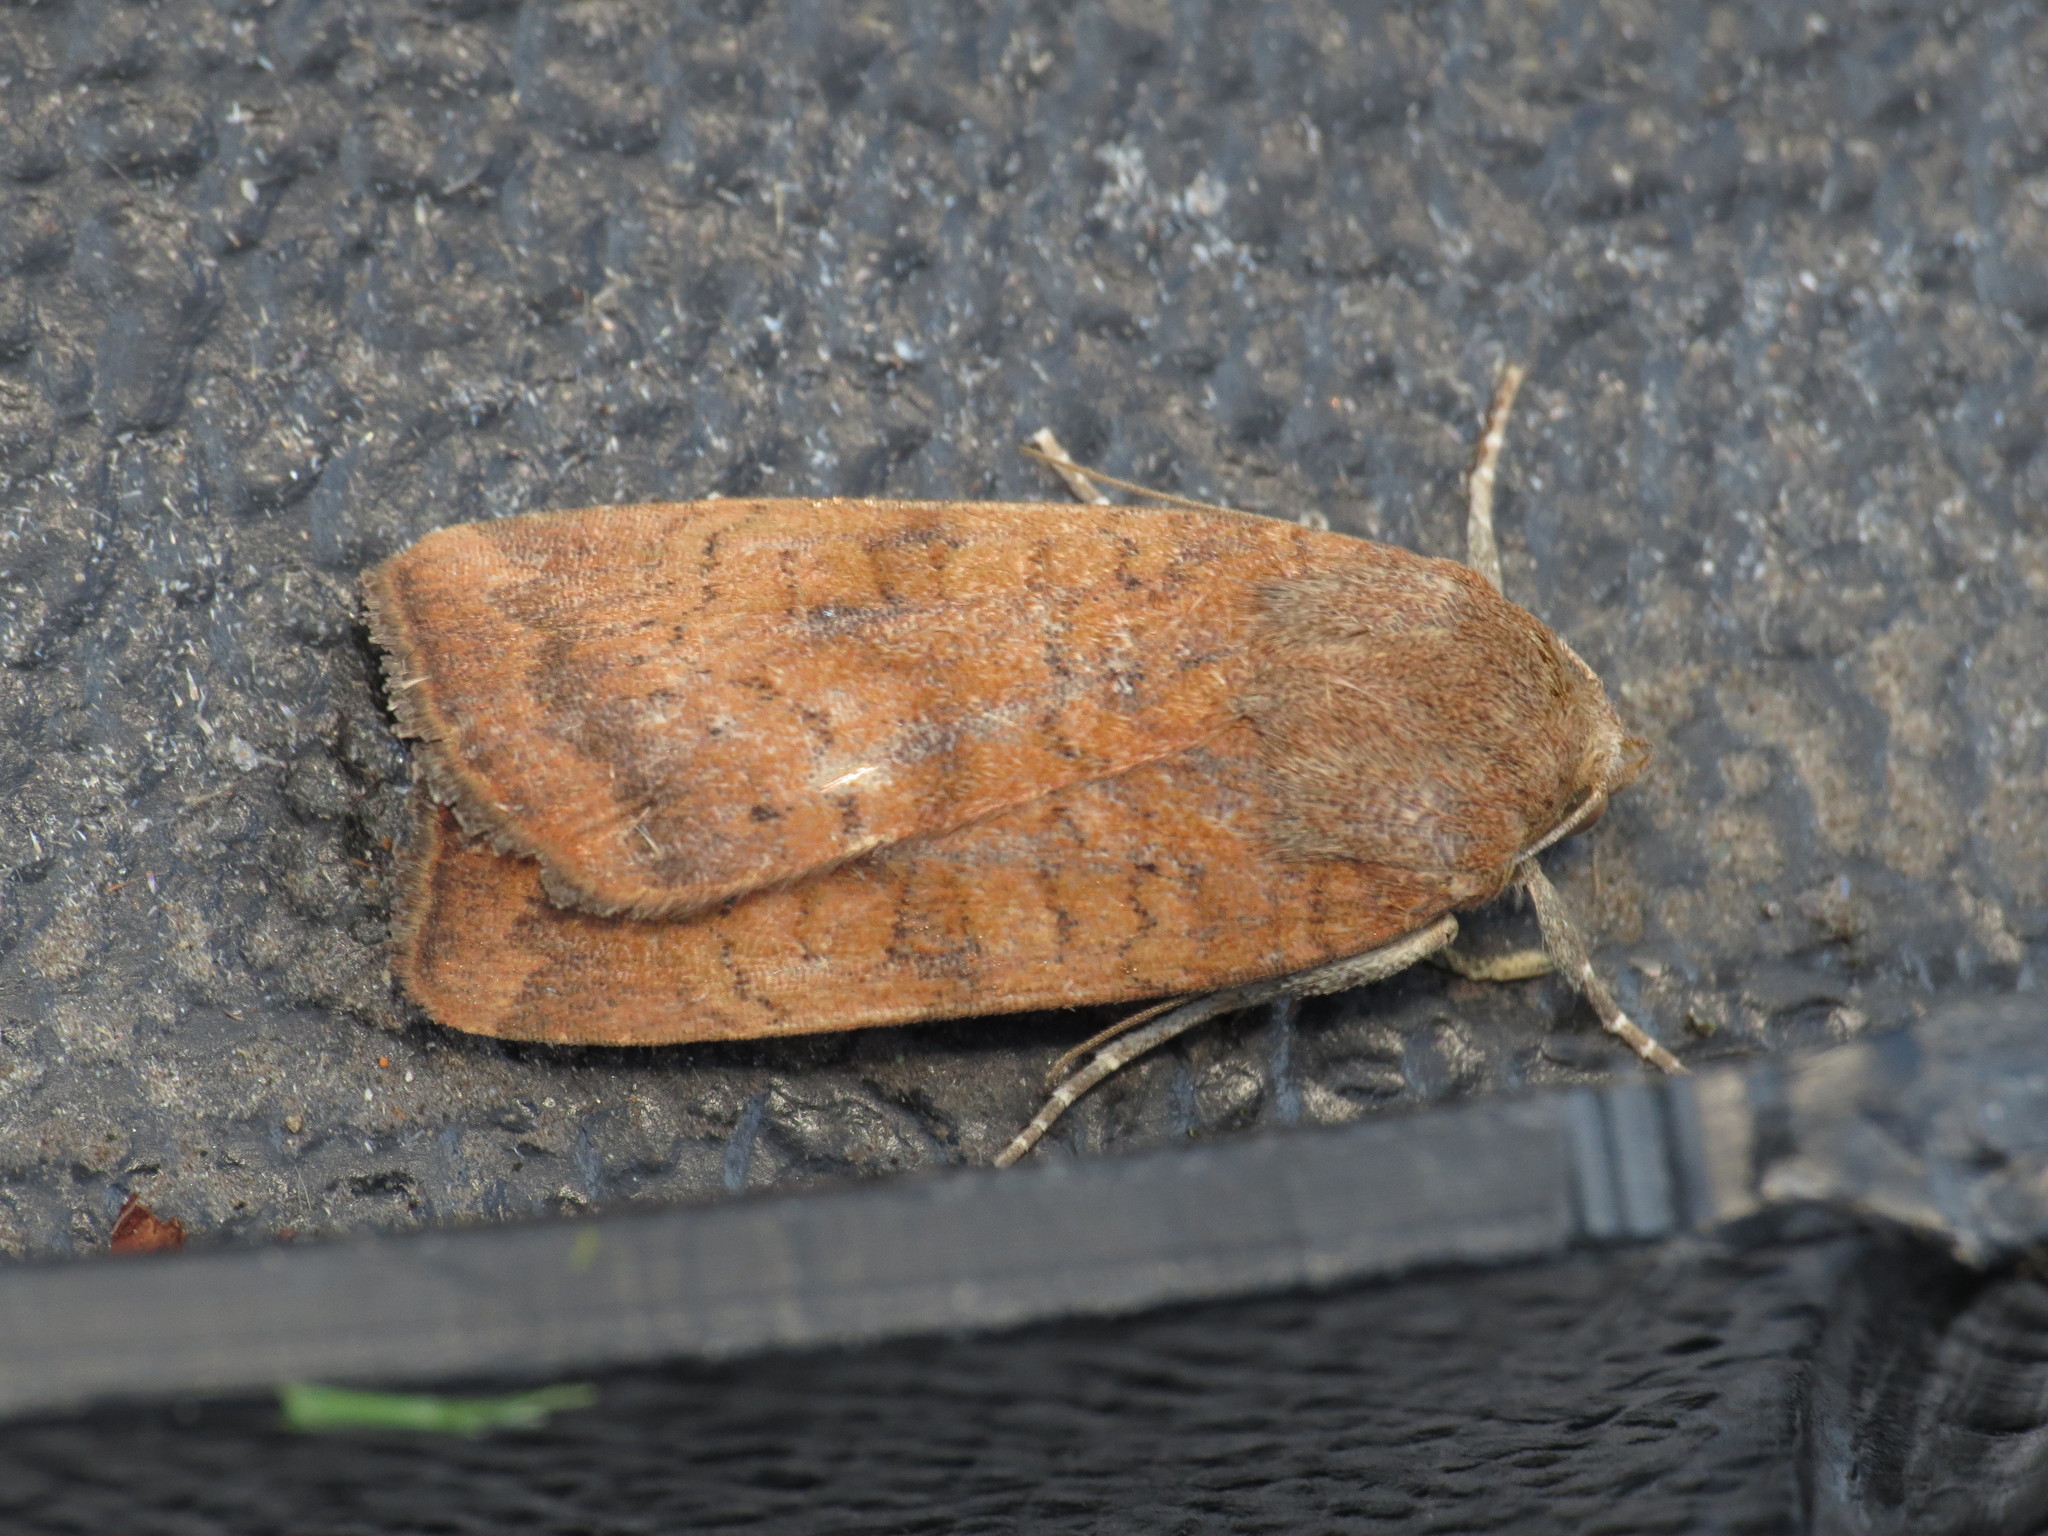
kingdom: Animalia
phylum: Arthropoda
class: Insecta
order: Lepidoptera
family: Noctuidae
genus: Noctua
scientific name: Noctua interjecta
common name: Least yellow underwing
